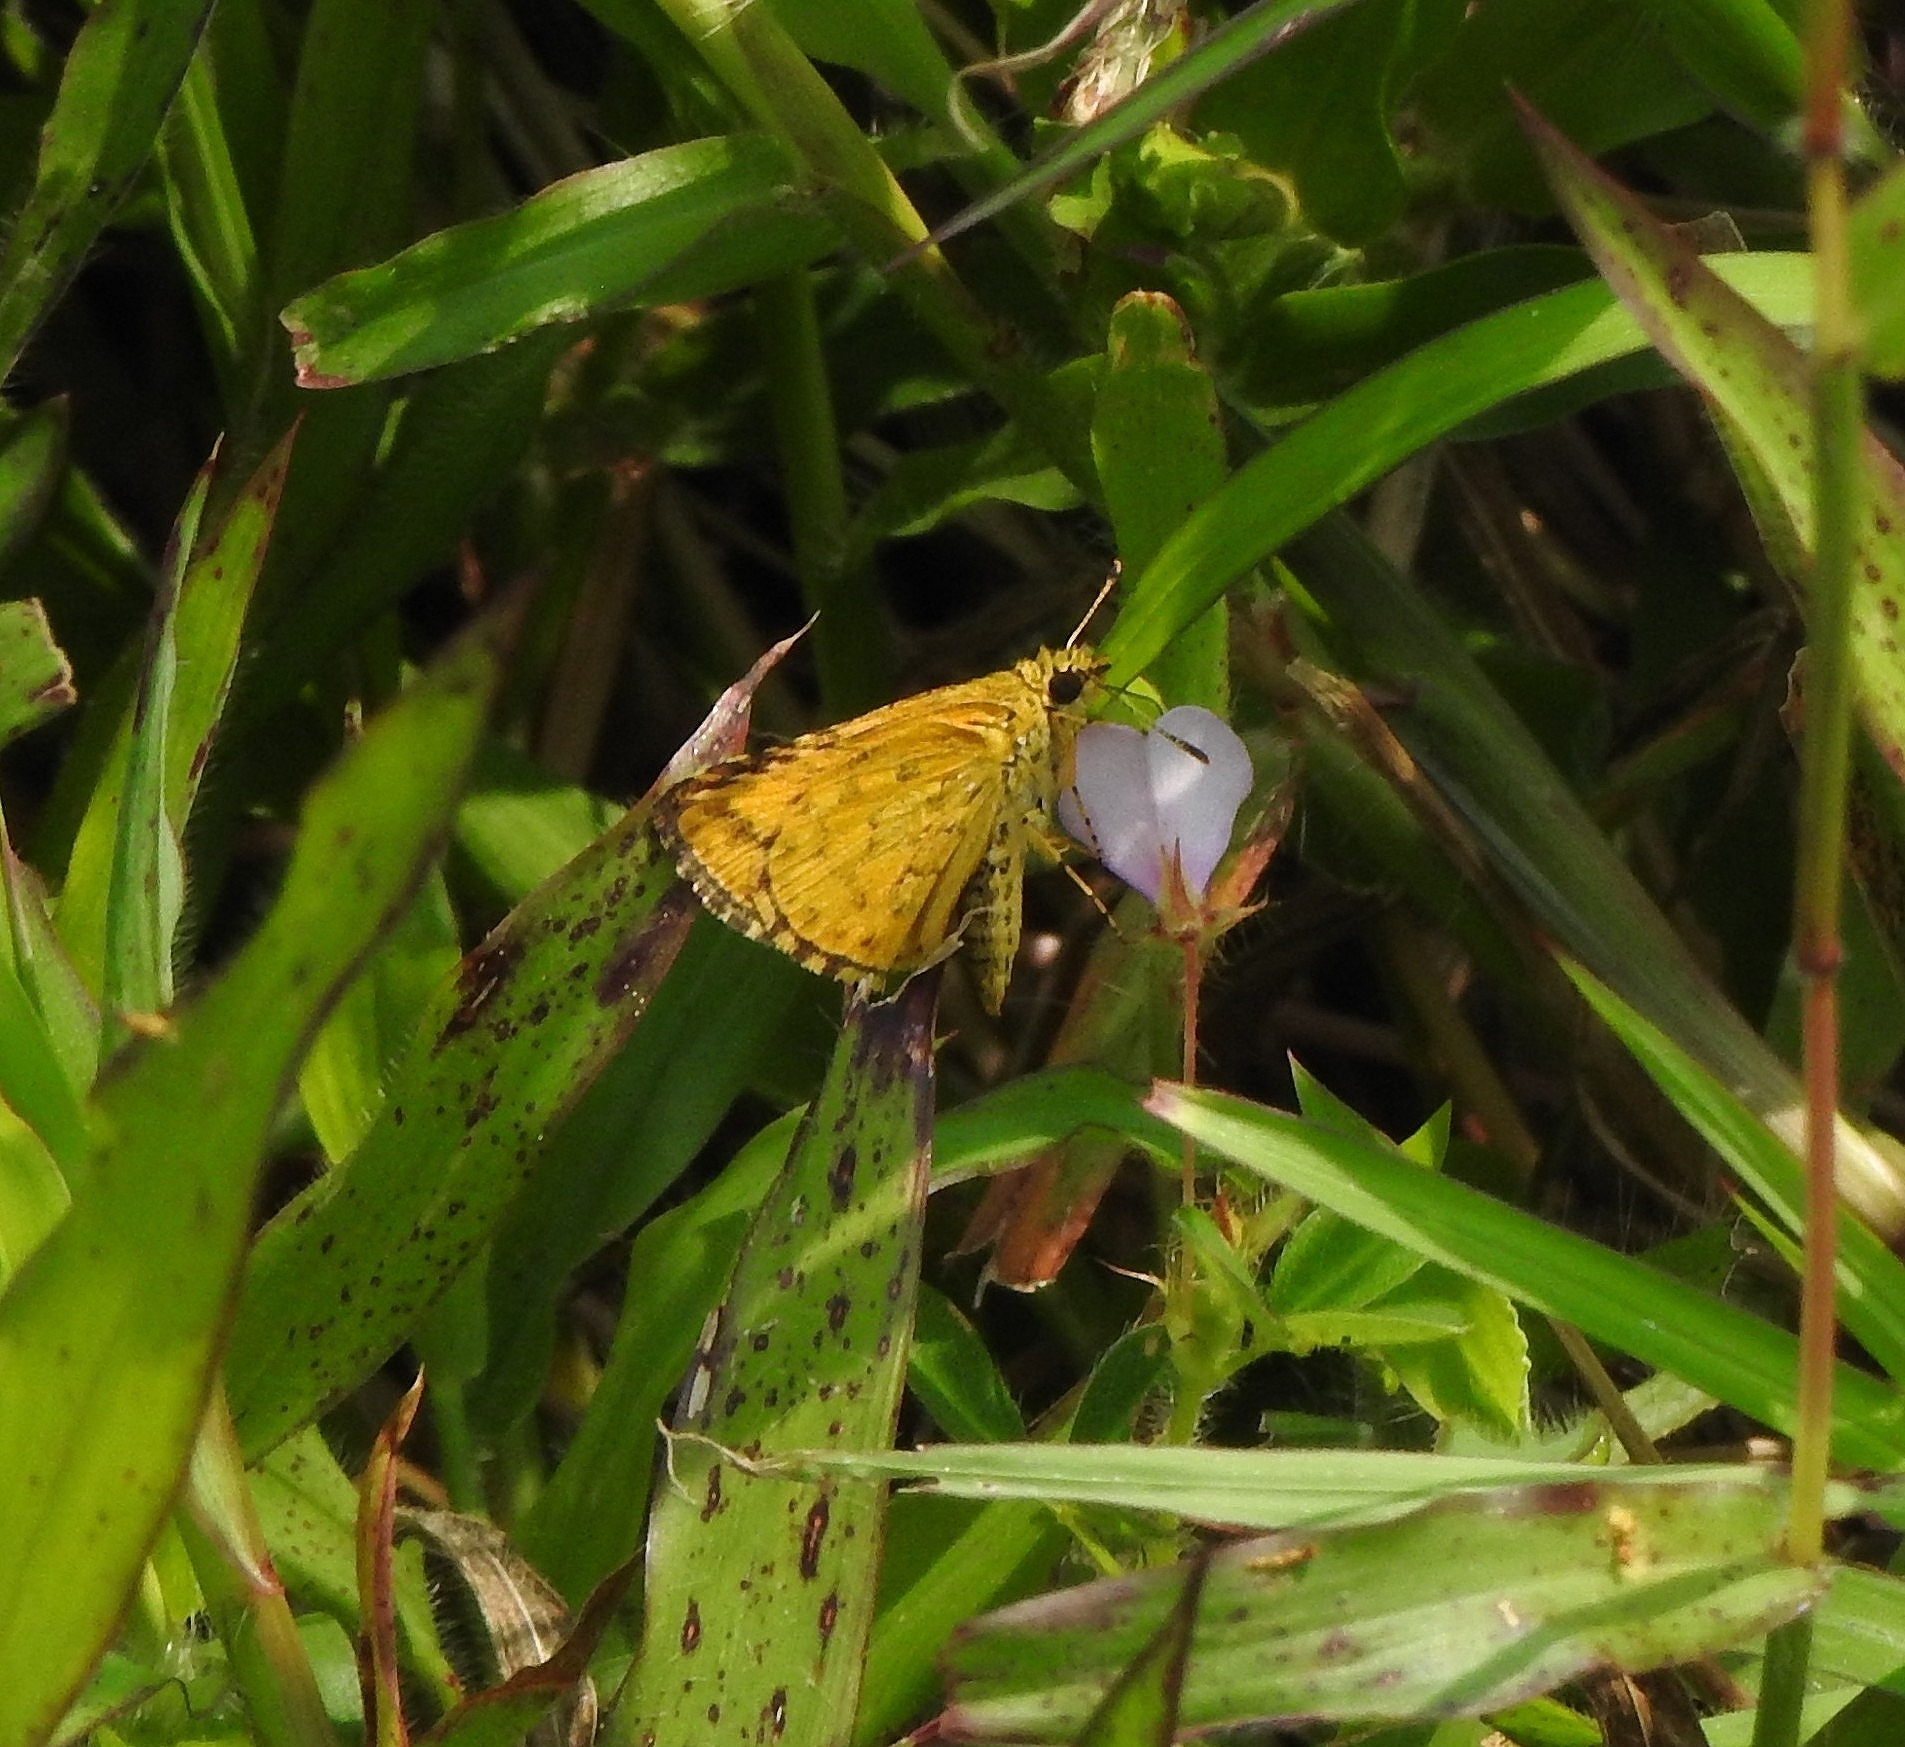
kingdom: Animalia
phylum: Arthropoda
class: Insecta
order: Lepidoptera
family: Hesperiidae
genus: Ampittia
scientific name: Ampittia dioscorides
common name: Common bush hopper
